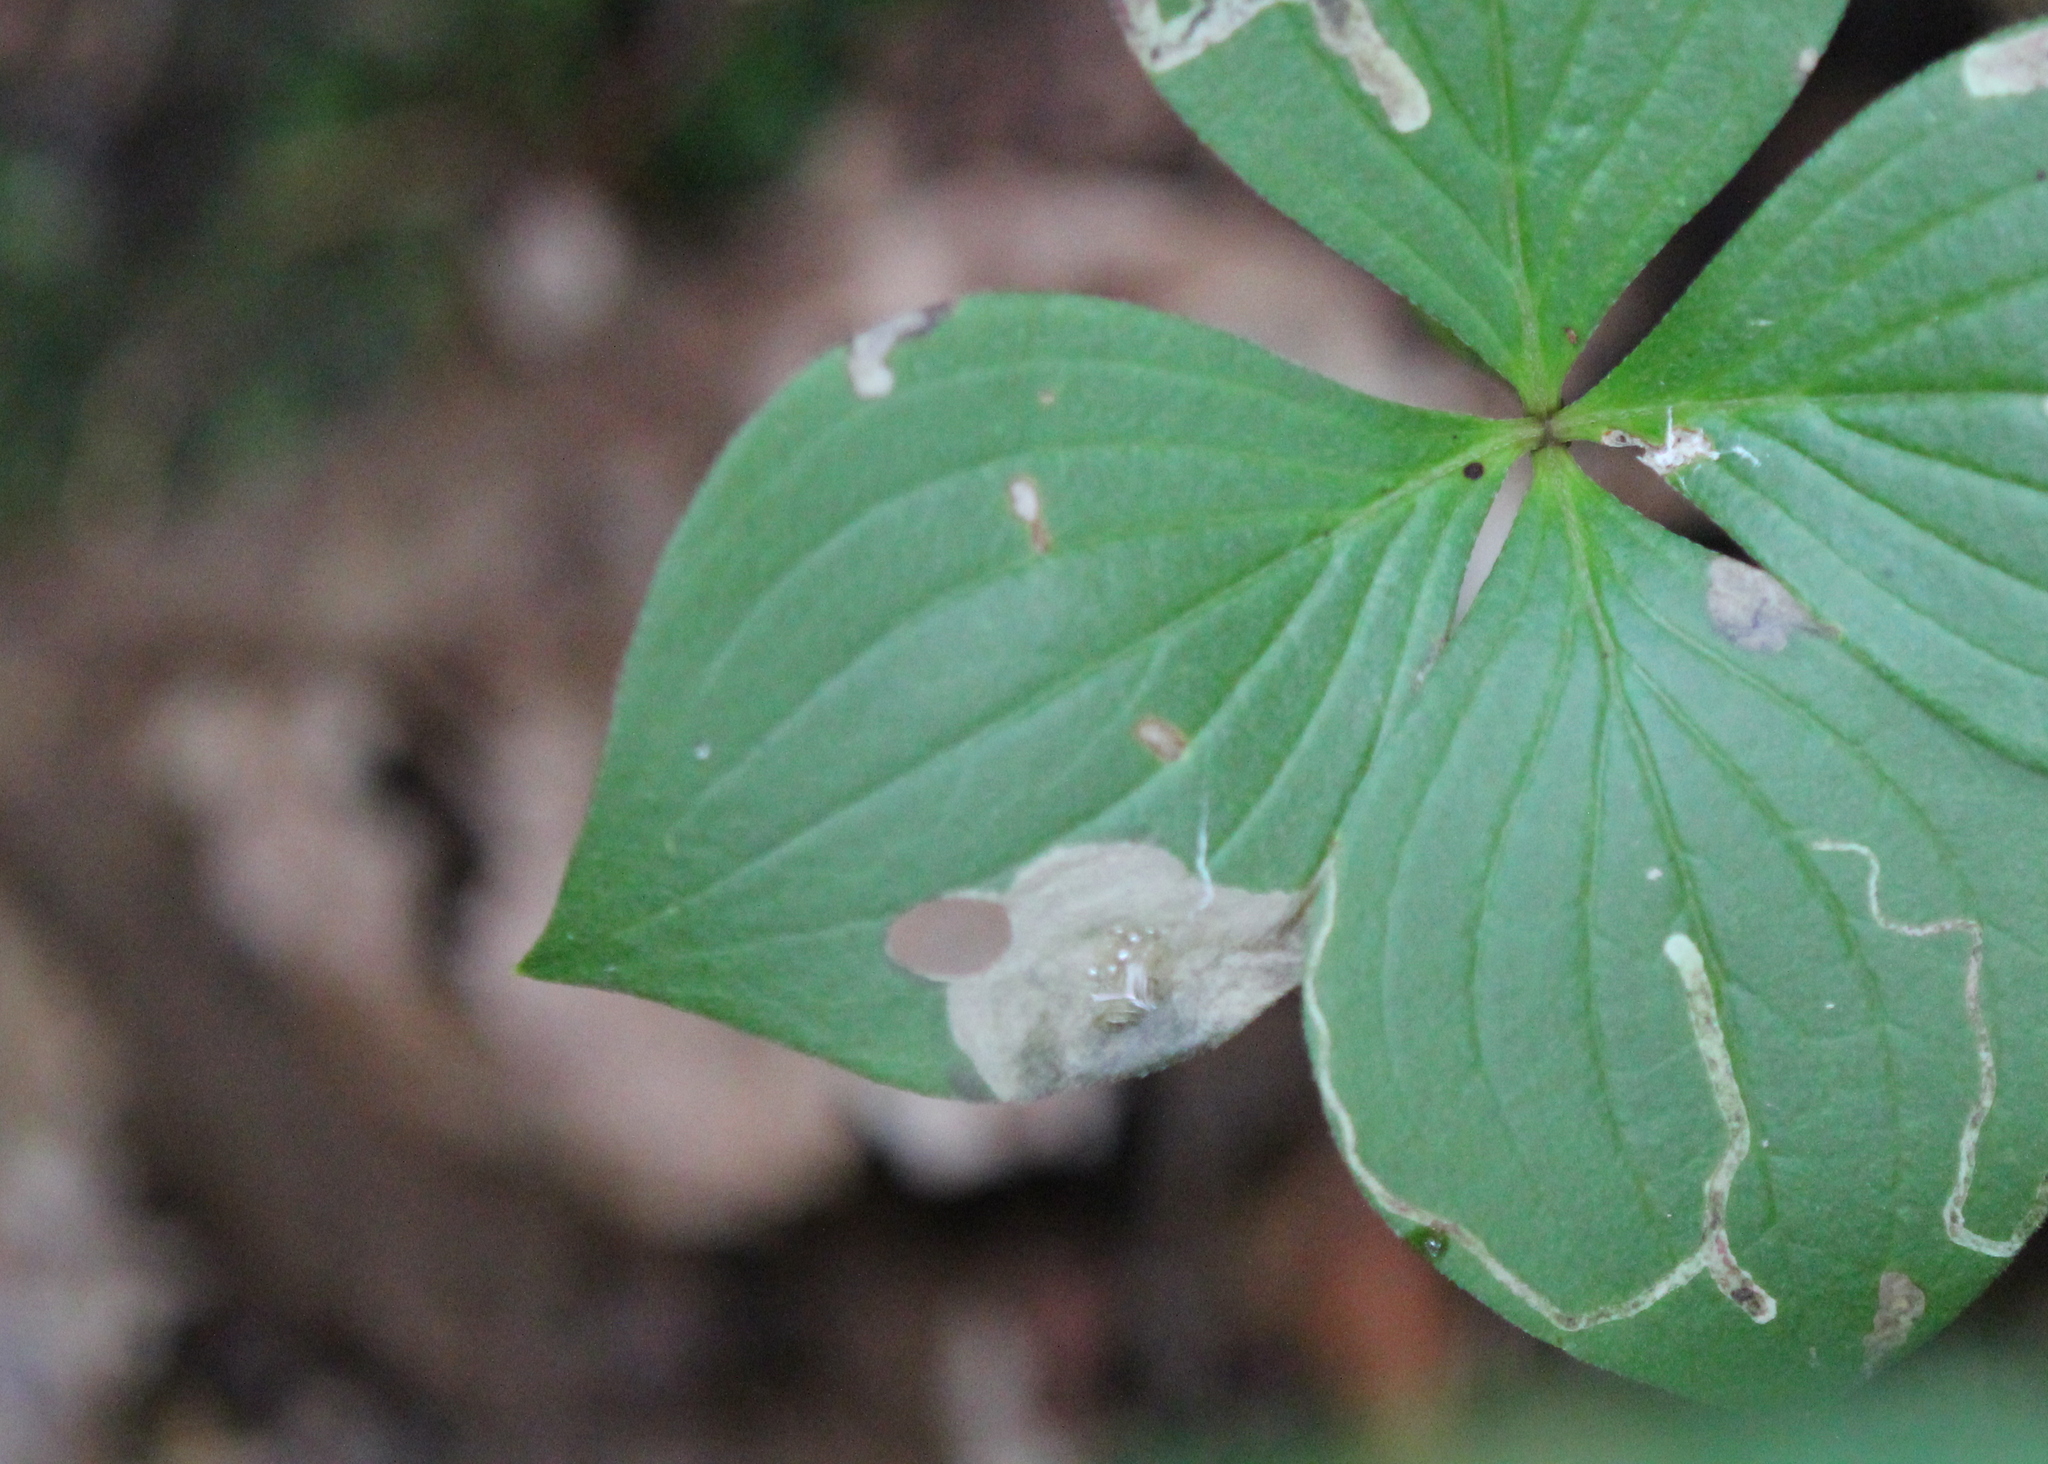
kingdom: Animalia
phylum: Arthropoda
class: Insecta
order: Lepidoptera
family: Heliozelidae
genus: Antispila
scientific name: Antispila freemani
